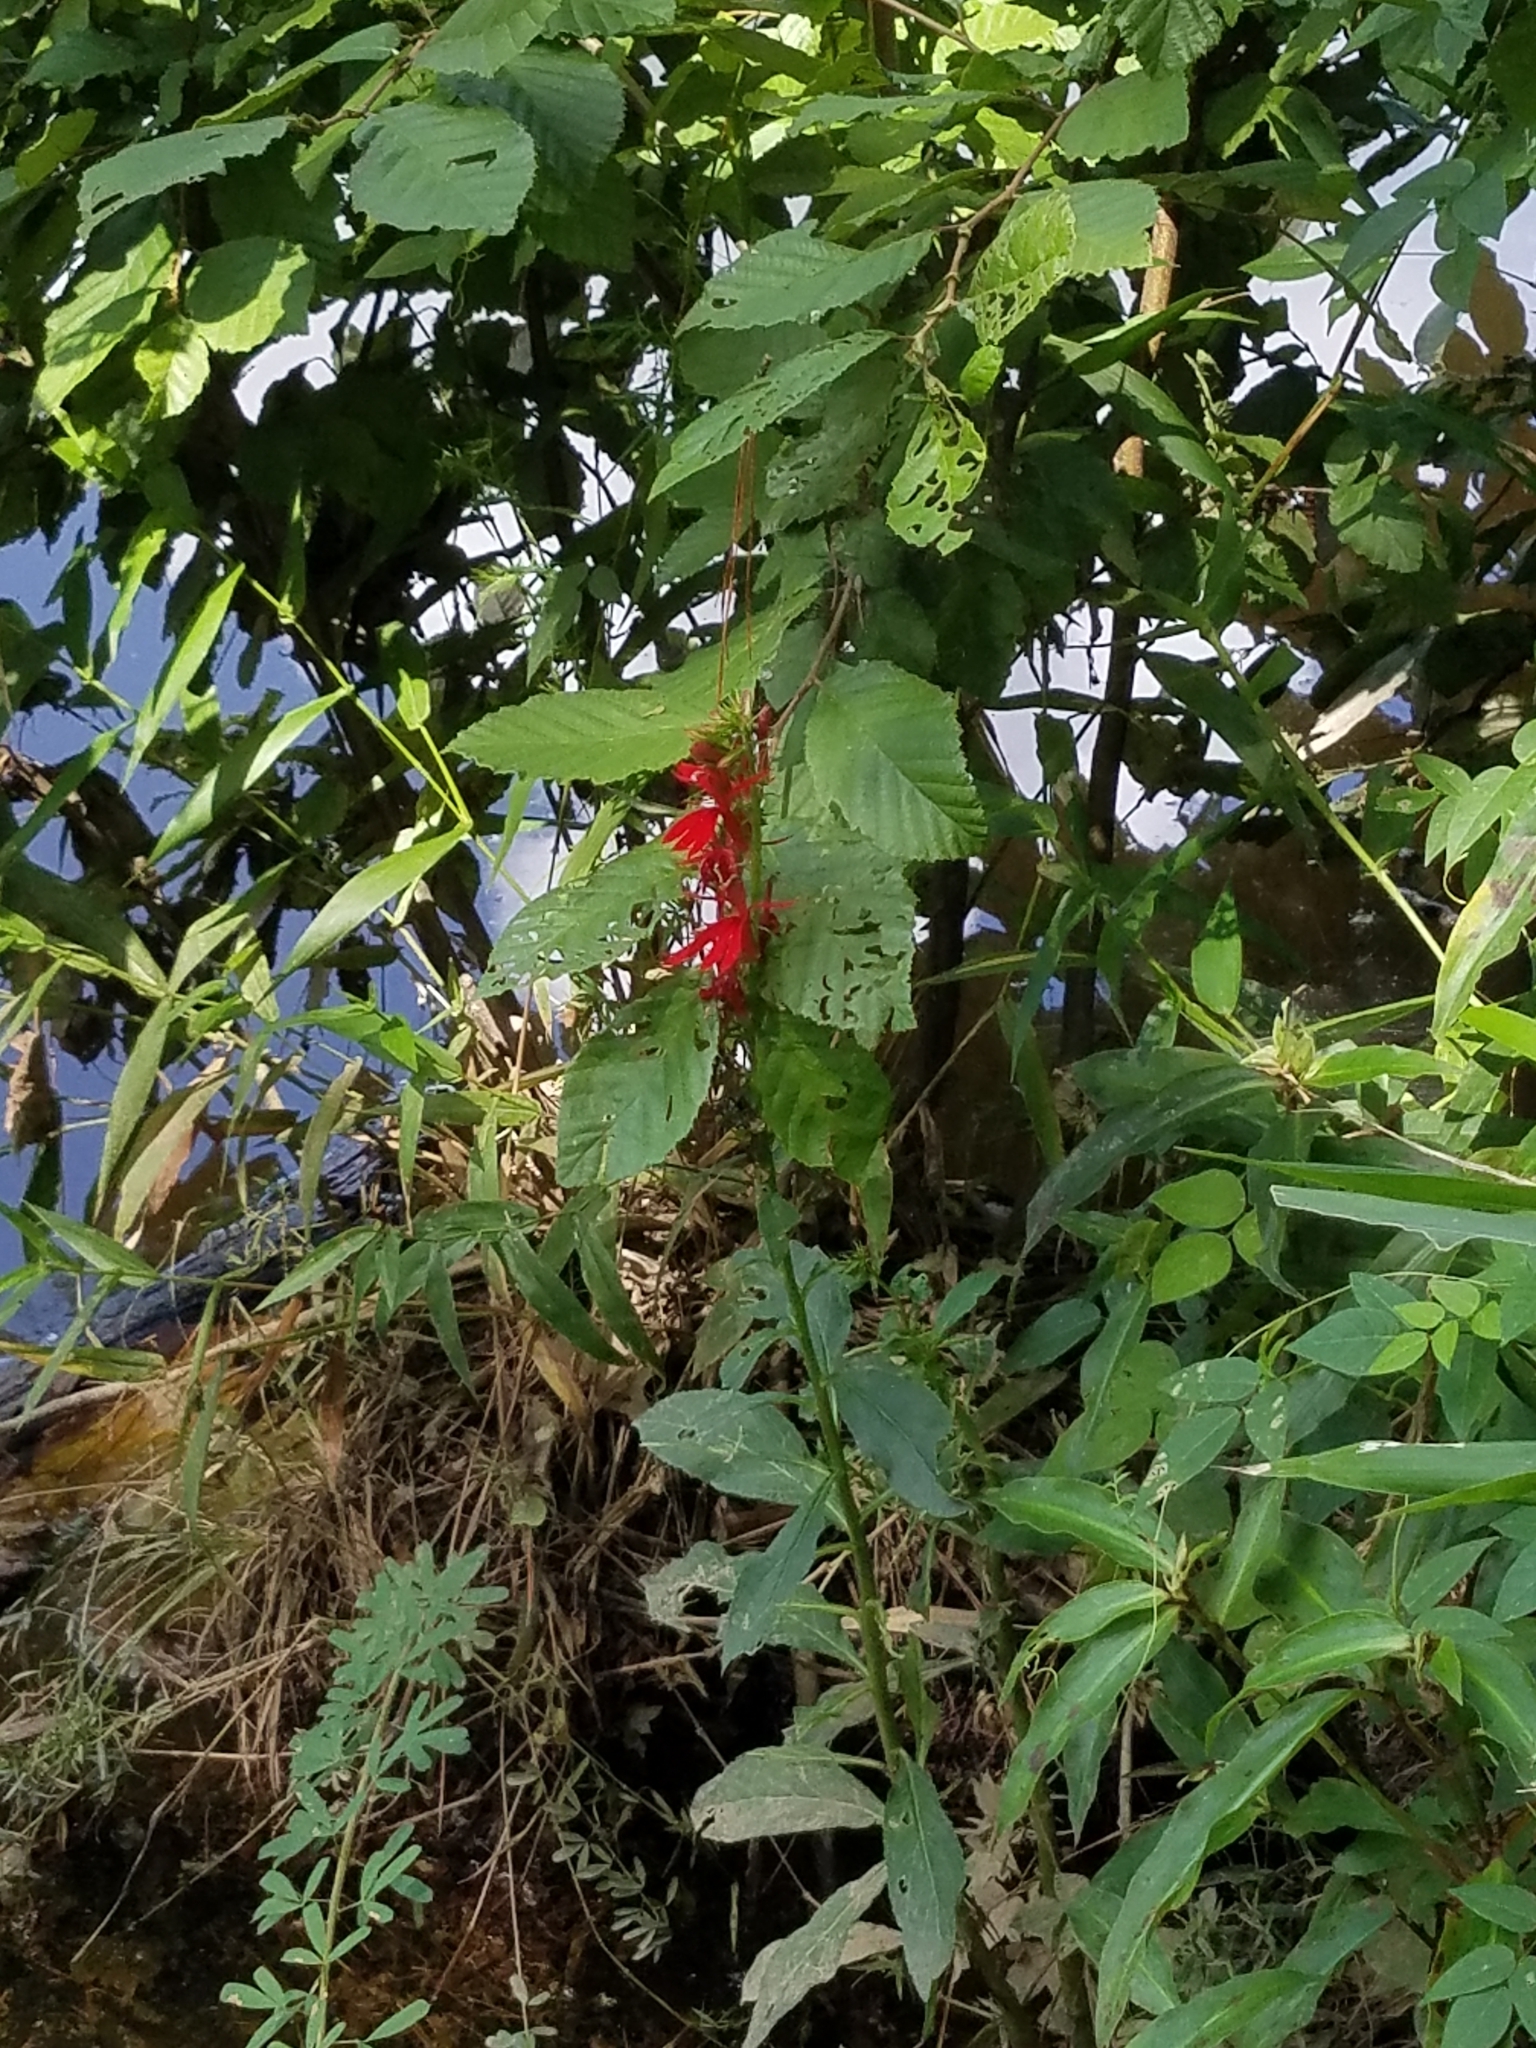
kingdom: Plantae
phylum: Tracheophyta
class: Magnoliopsida
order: Asterales
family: Campanulaceae
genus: Lobelia
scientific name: Lobelia cardinalis
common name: Cardinal flower
